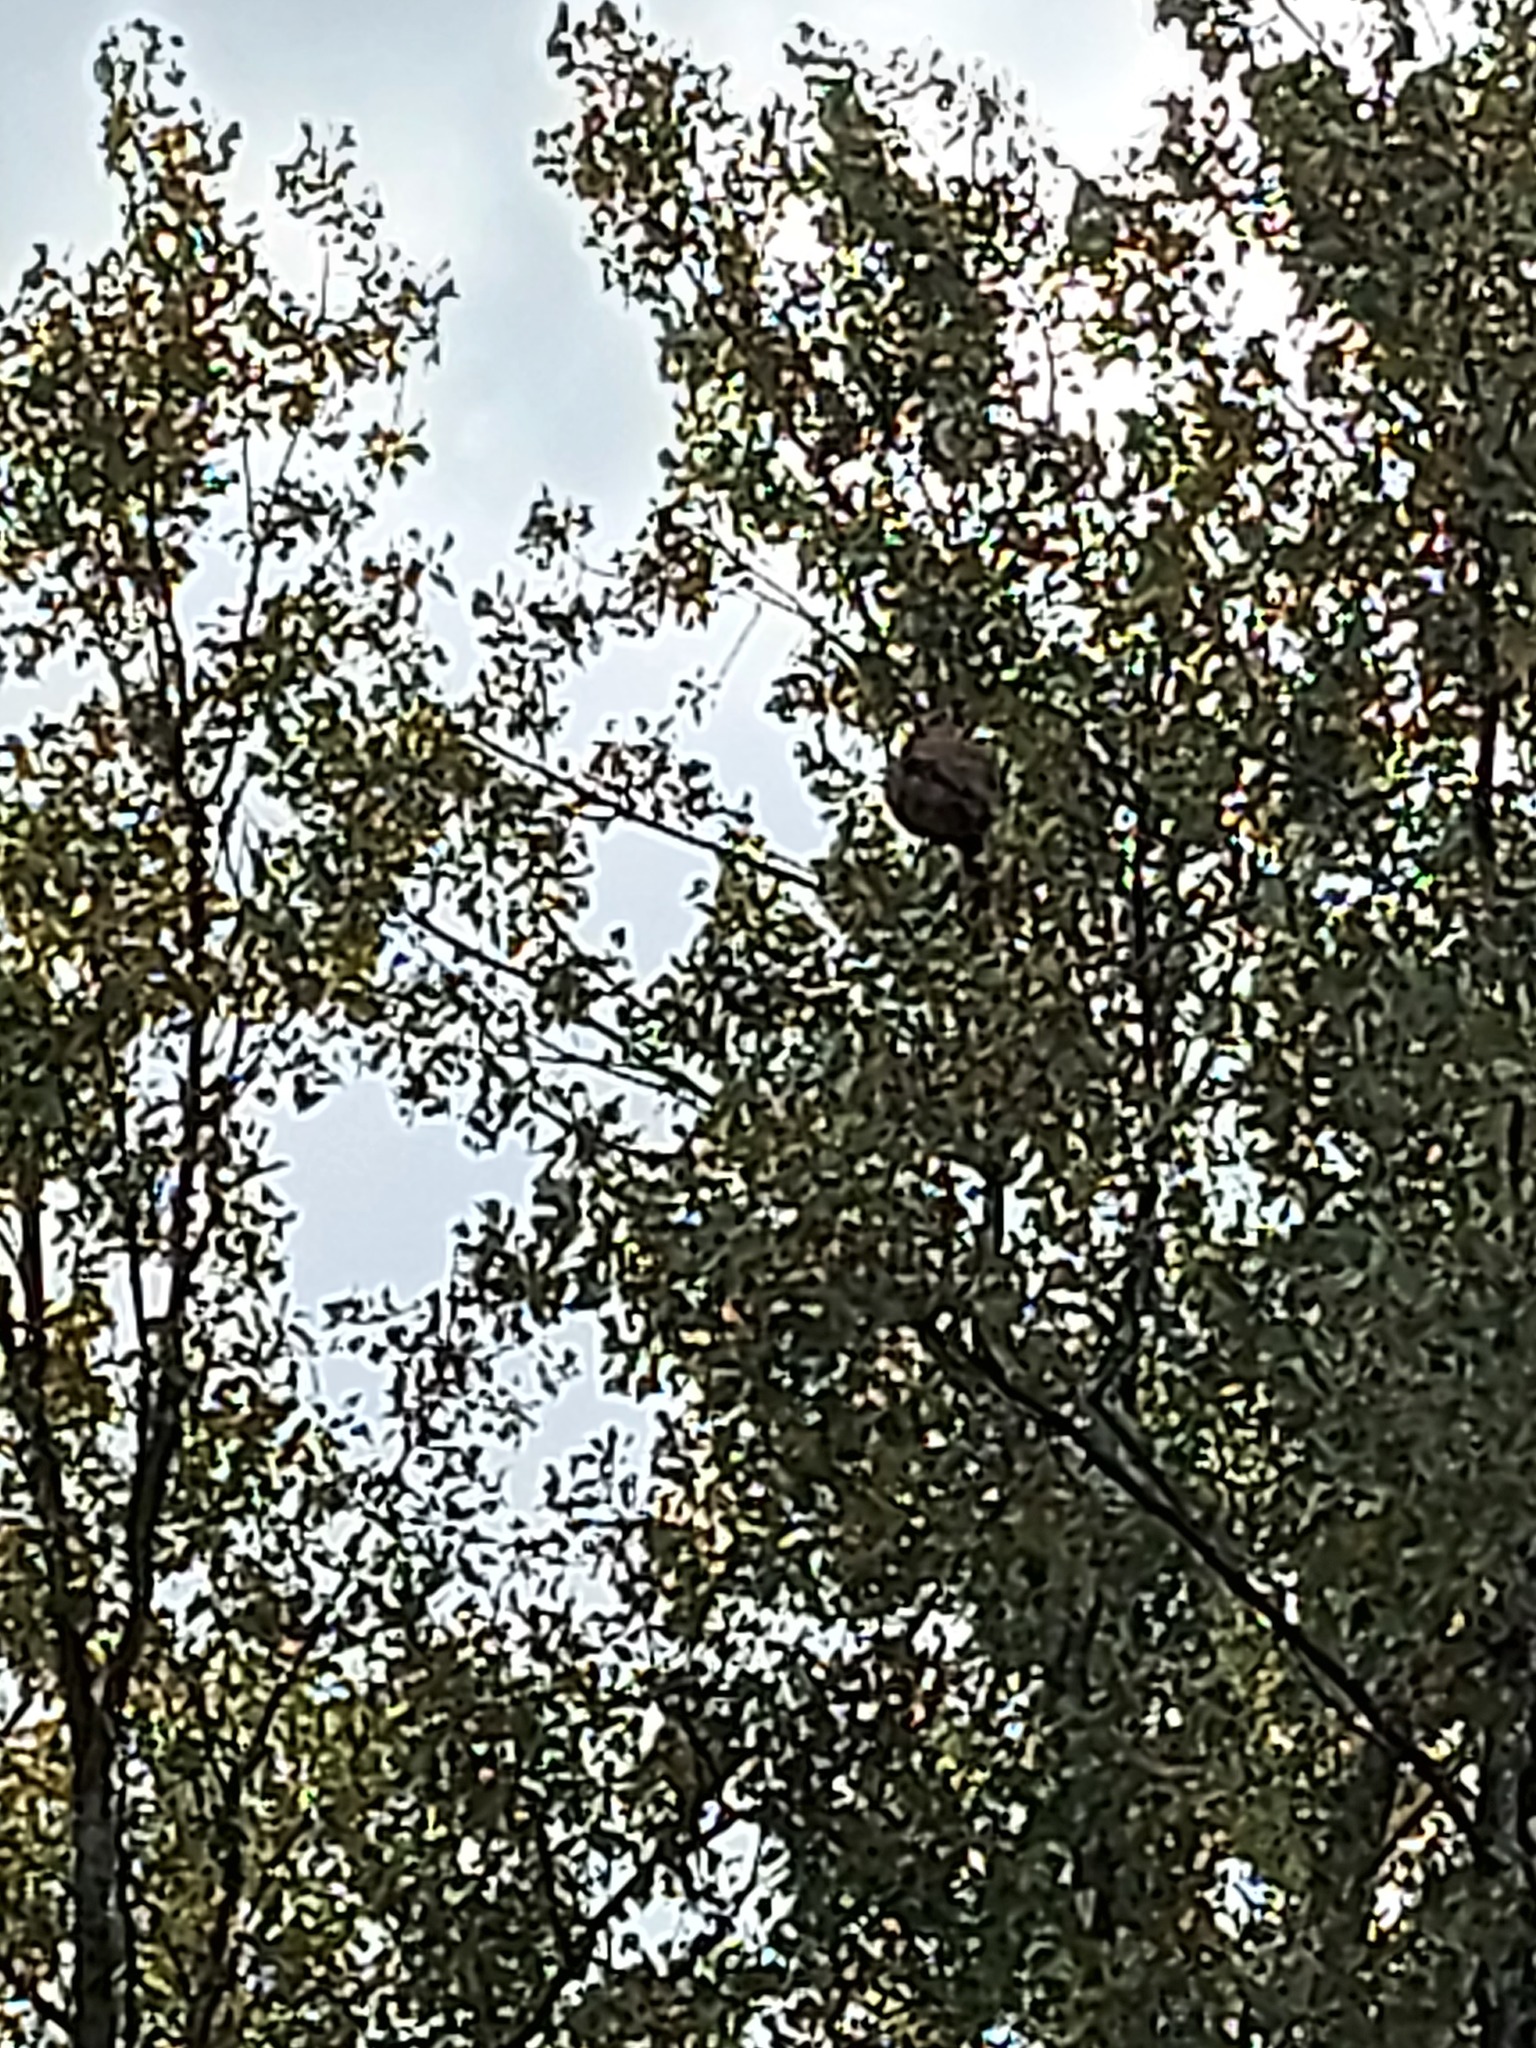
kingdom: Animalia
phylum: Arthropoda
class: Insecta
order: Hymenoptera
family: Vespidae
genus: Vespa
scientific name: Vespa velutina
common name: Asian hornet
